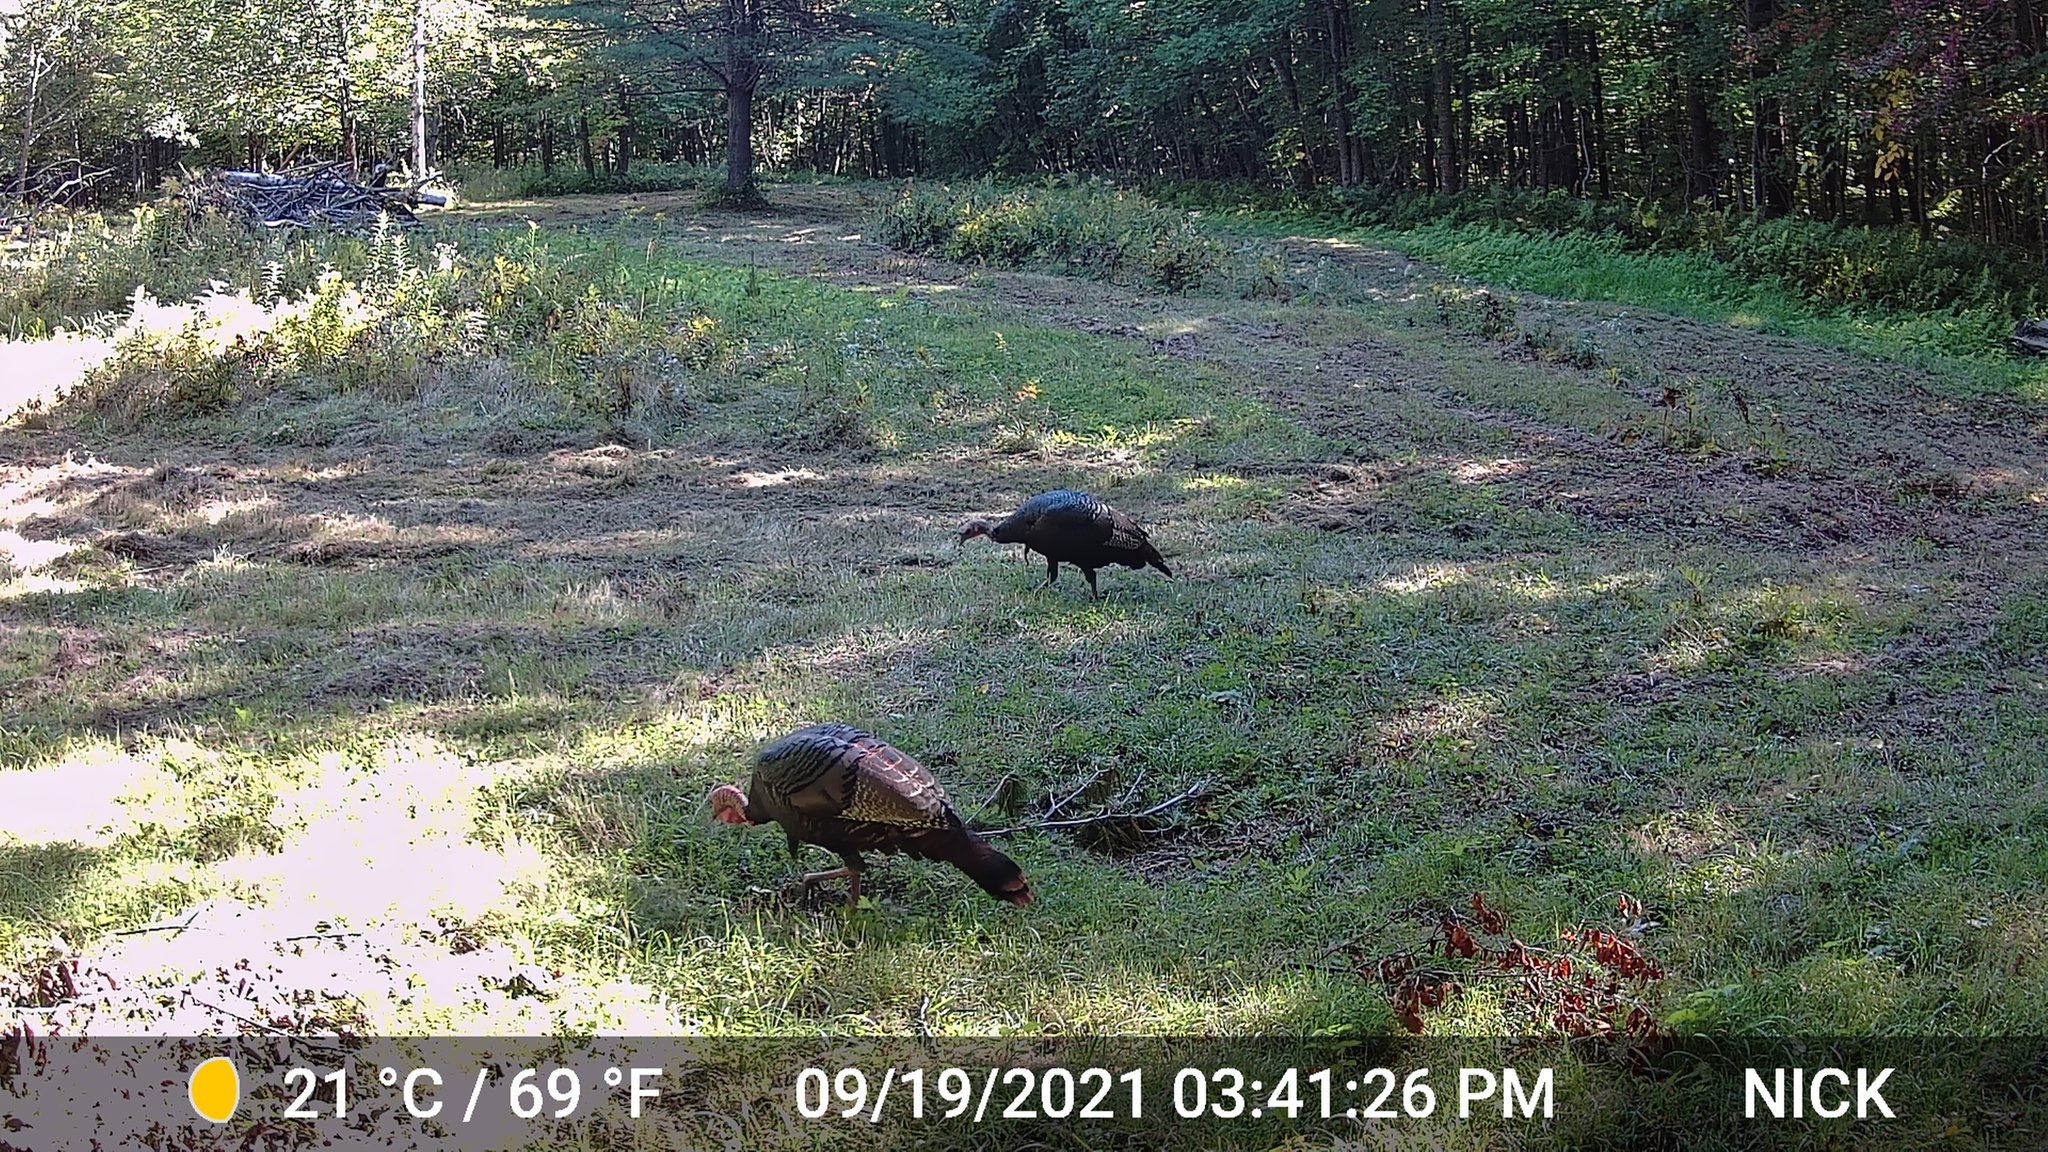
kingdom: Animalia
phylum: Chordata
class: Aves
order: Galliformes
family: Phasianidae
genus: Meleagris
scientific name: Meleagris gallopavo
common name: Wild turkey
